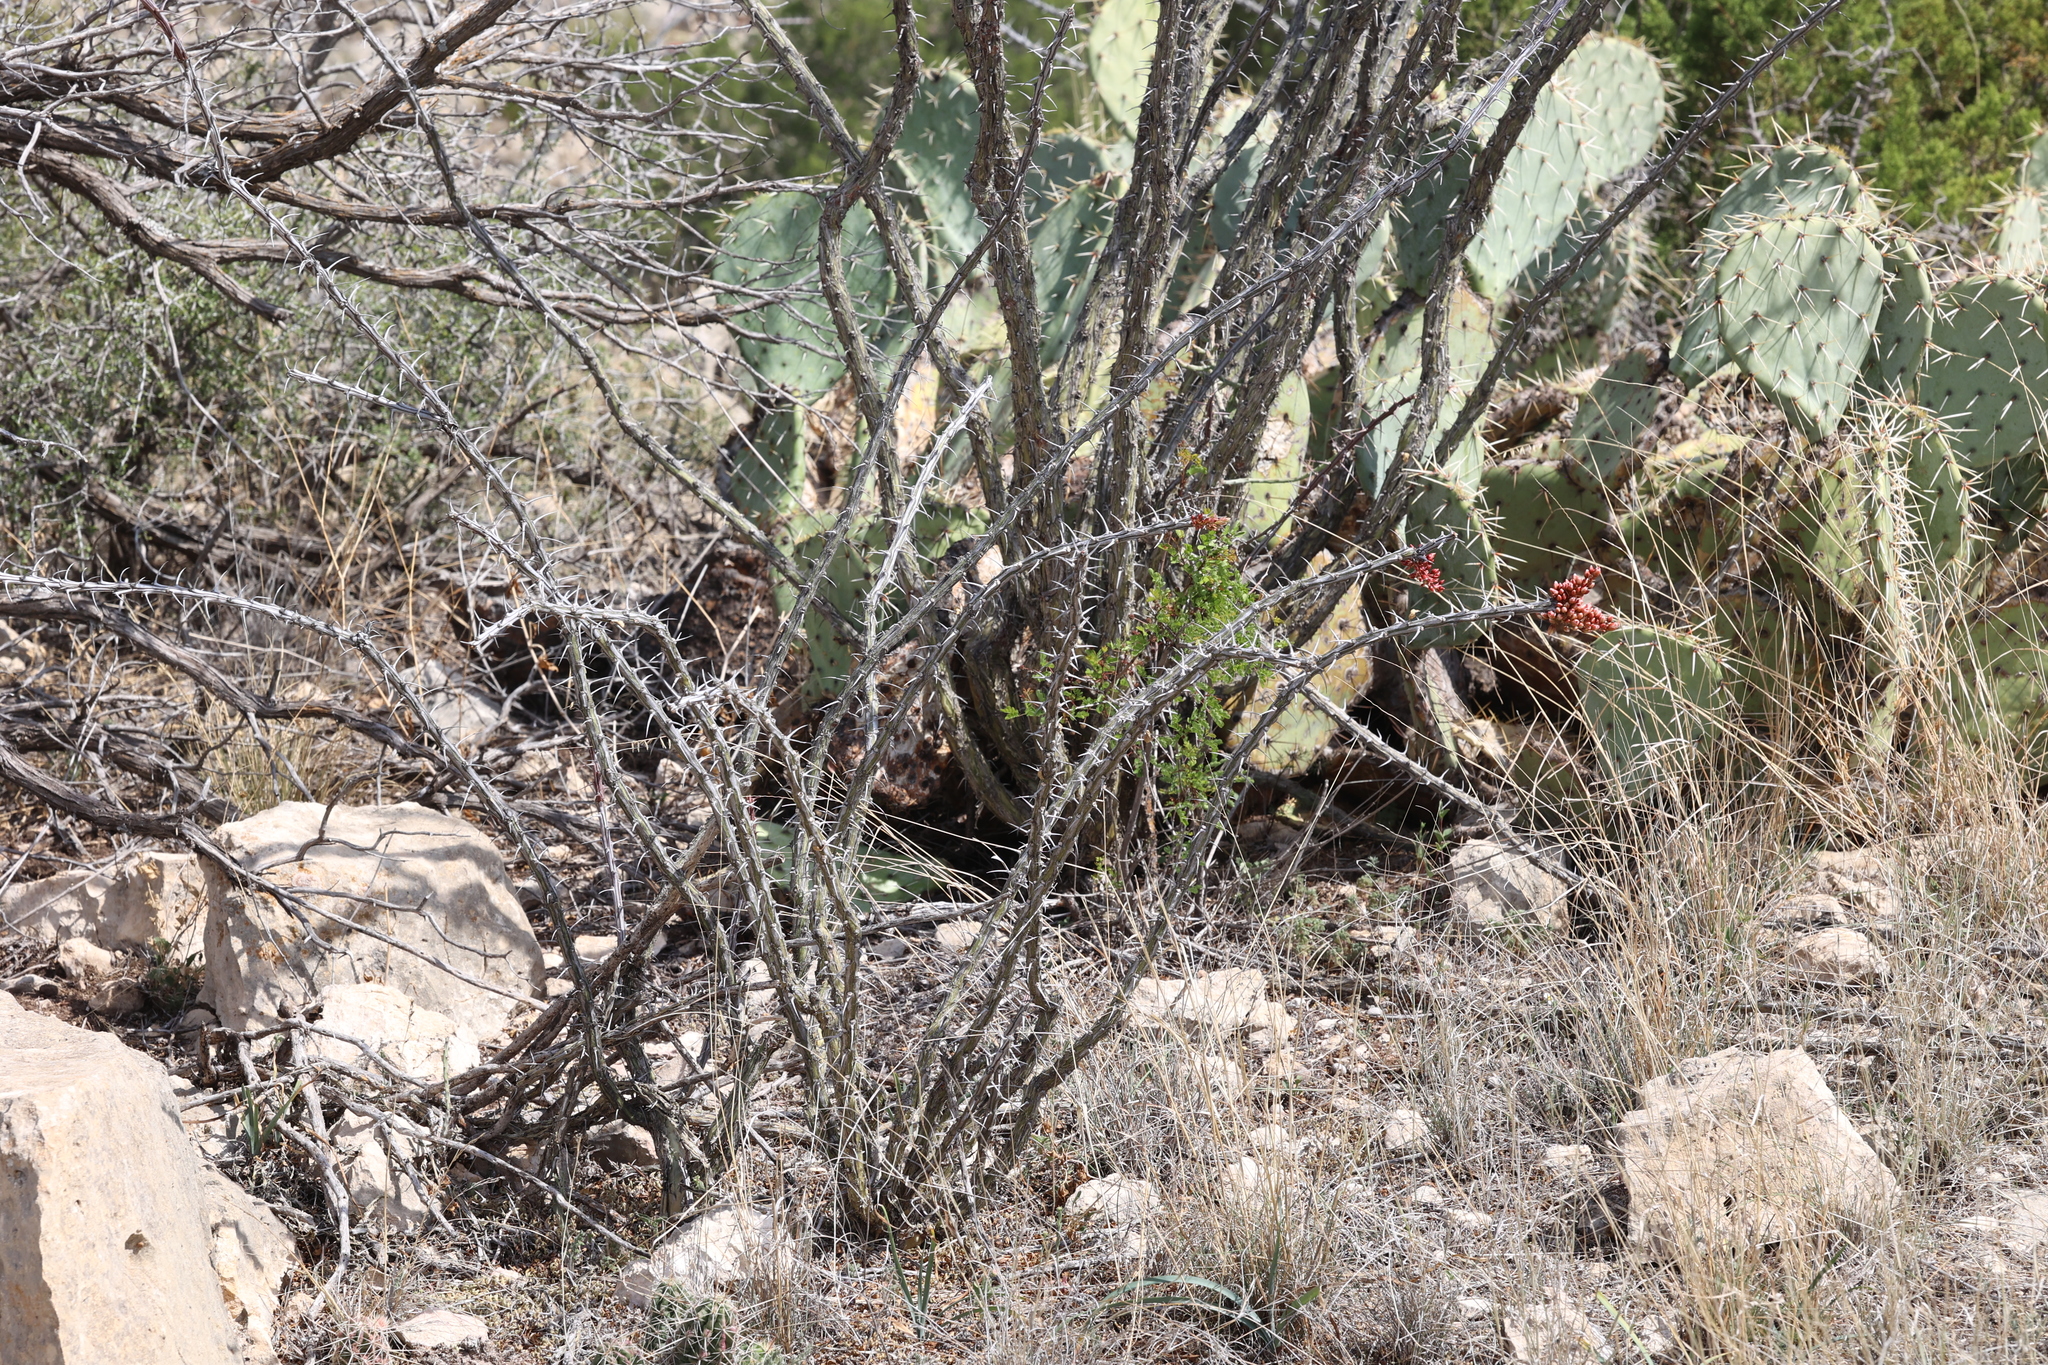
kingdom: Plantae
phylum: Tracheophyta
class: Magnoliopsida
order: Ericales
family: Fouquieriaceae
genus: Fouquieria
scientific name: Fouquieria splendens
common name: Vine-cactus
